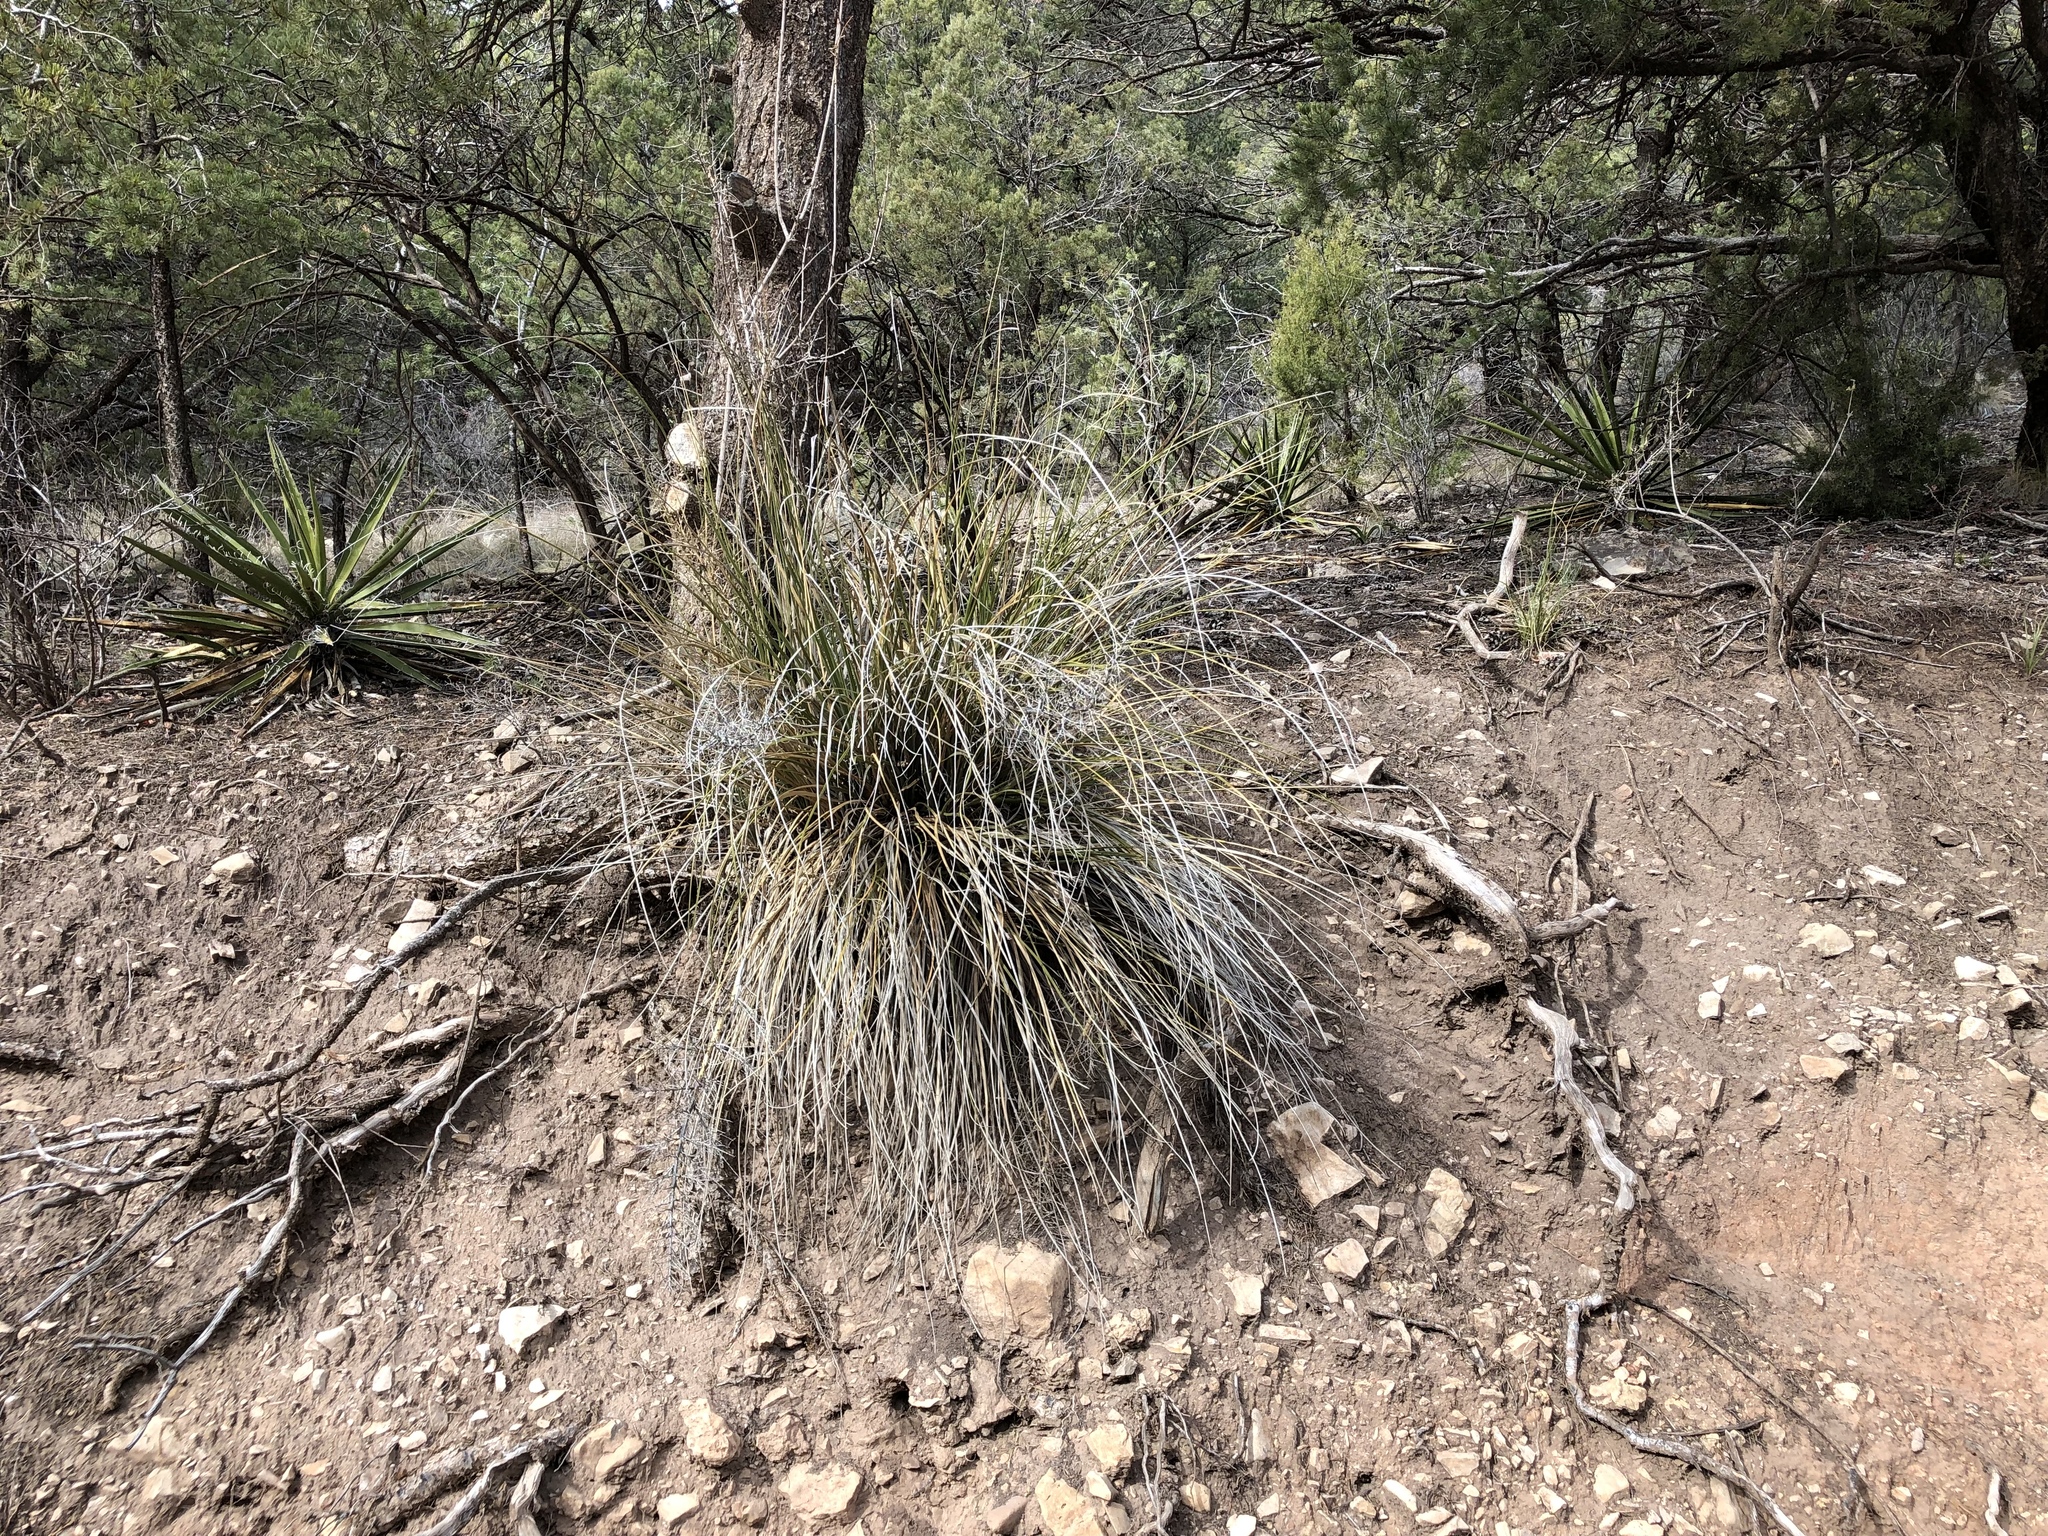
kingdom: Plantae
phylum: Tracheophyta
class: Liliopsida
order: Asparagales
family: Asparagaceae
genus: Nolina
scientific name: Nolina texana
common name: Texas sacahuiste
